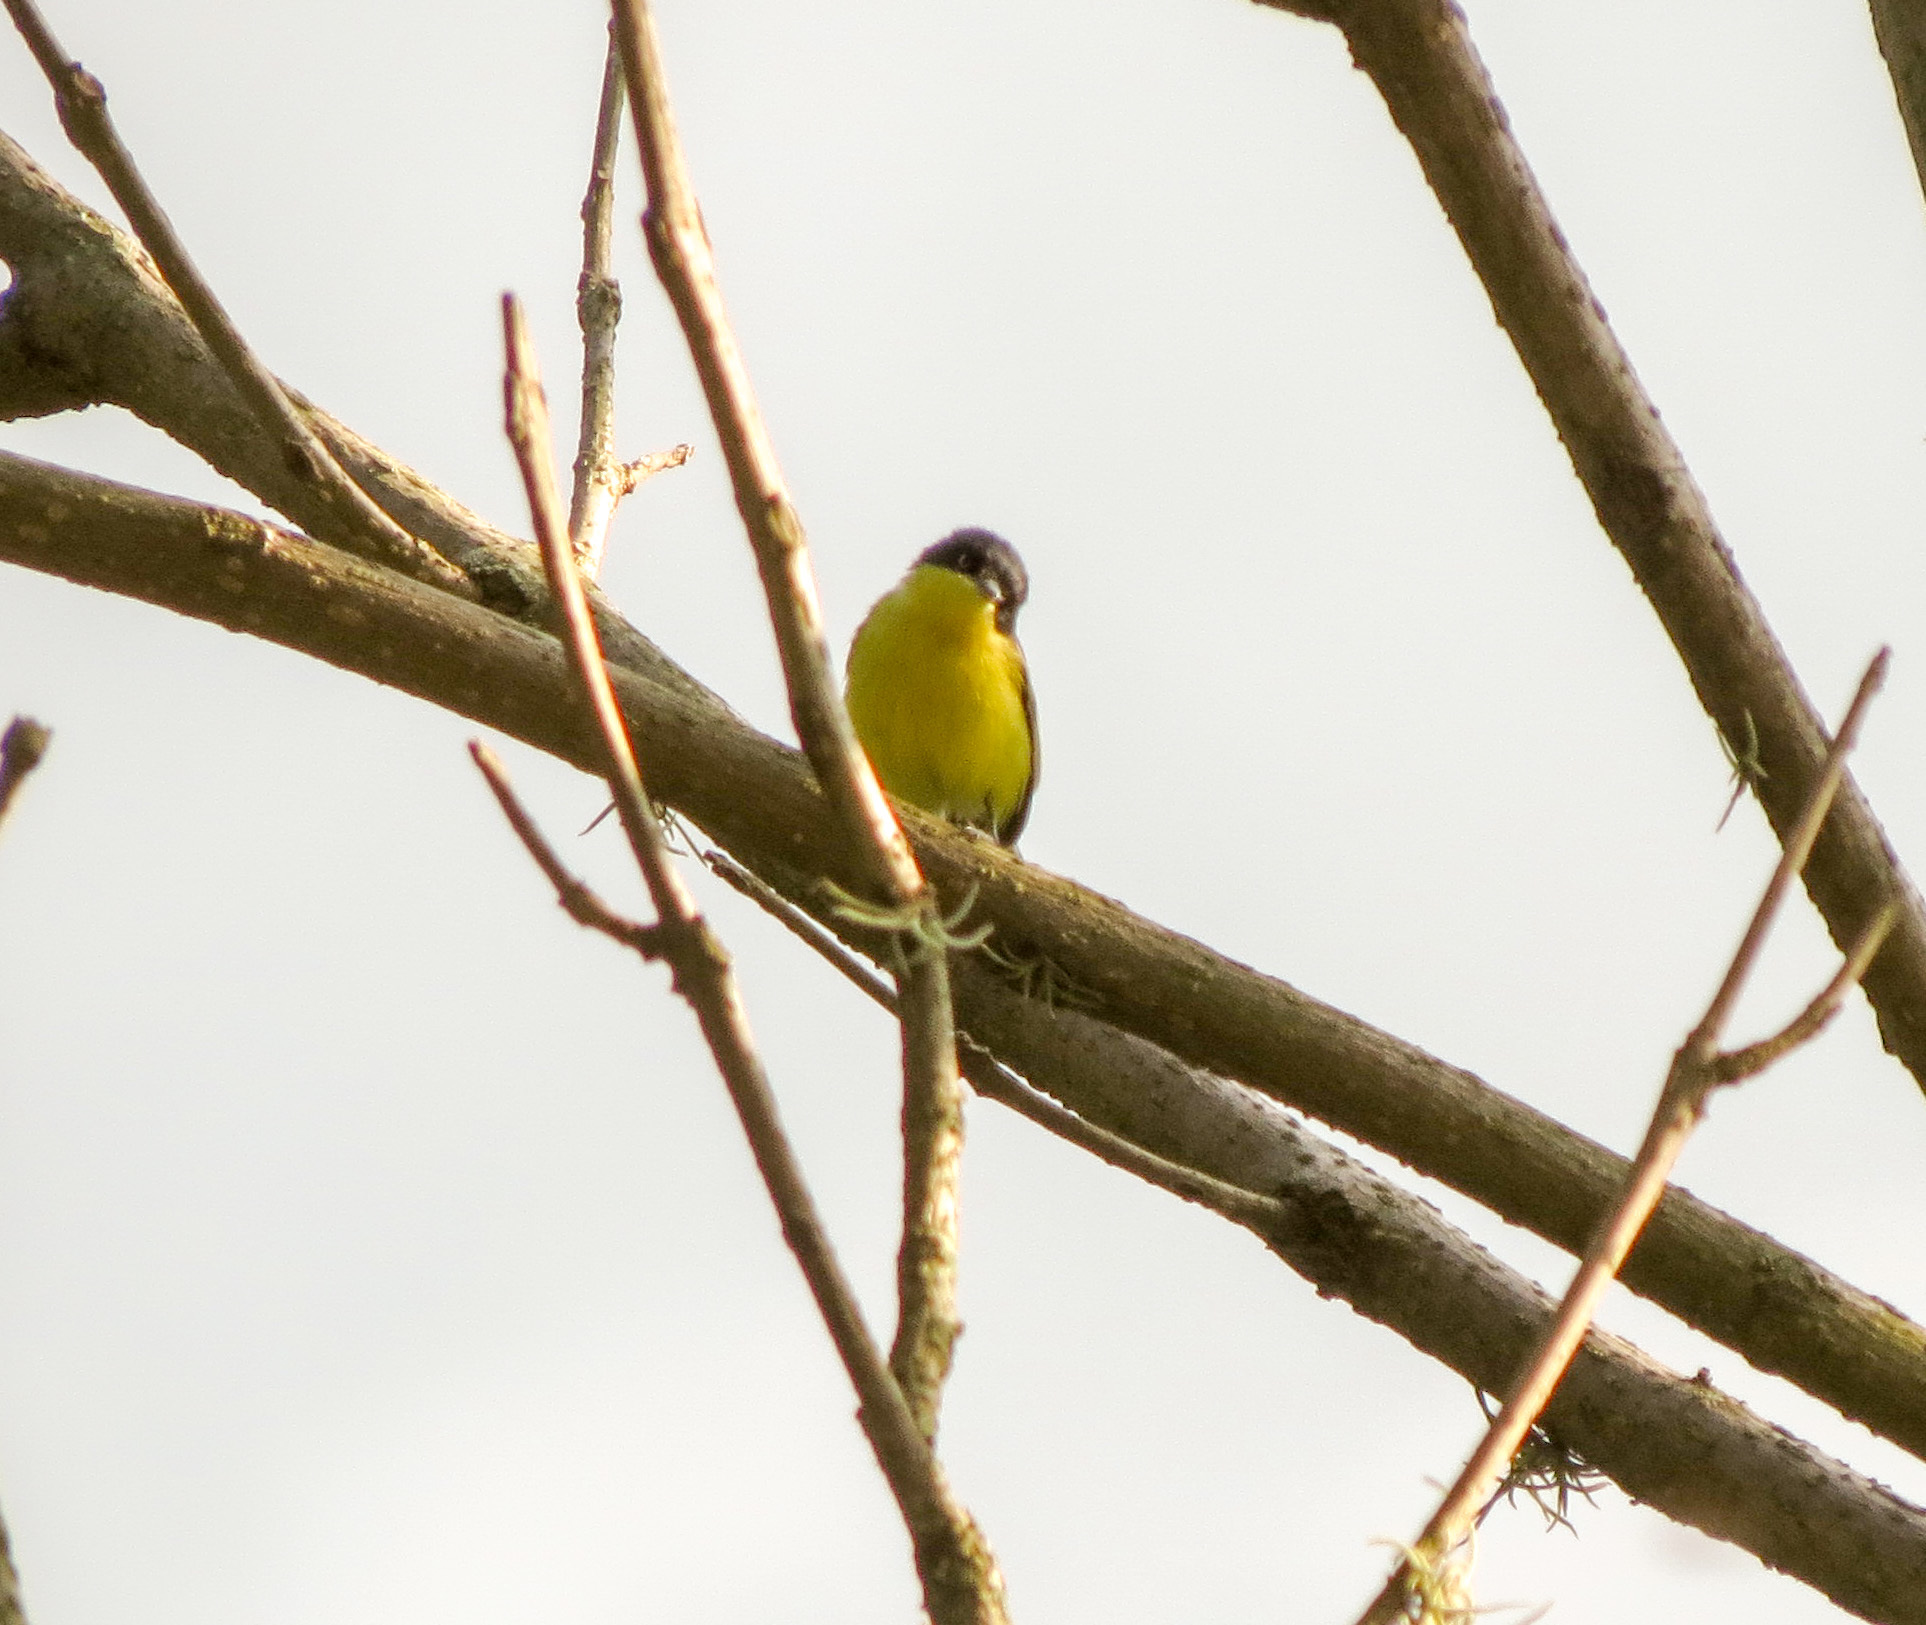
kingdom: Animalia
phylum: Chordata
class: Aves
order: Passeriformes
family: Tyrannidae
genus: Todirostrum
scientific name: Todirostrum cinereum
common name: Common tody-flycatcher
